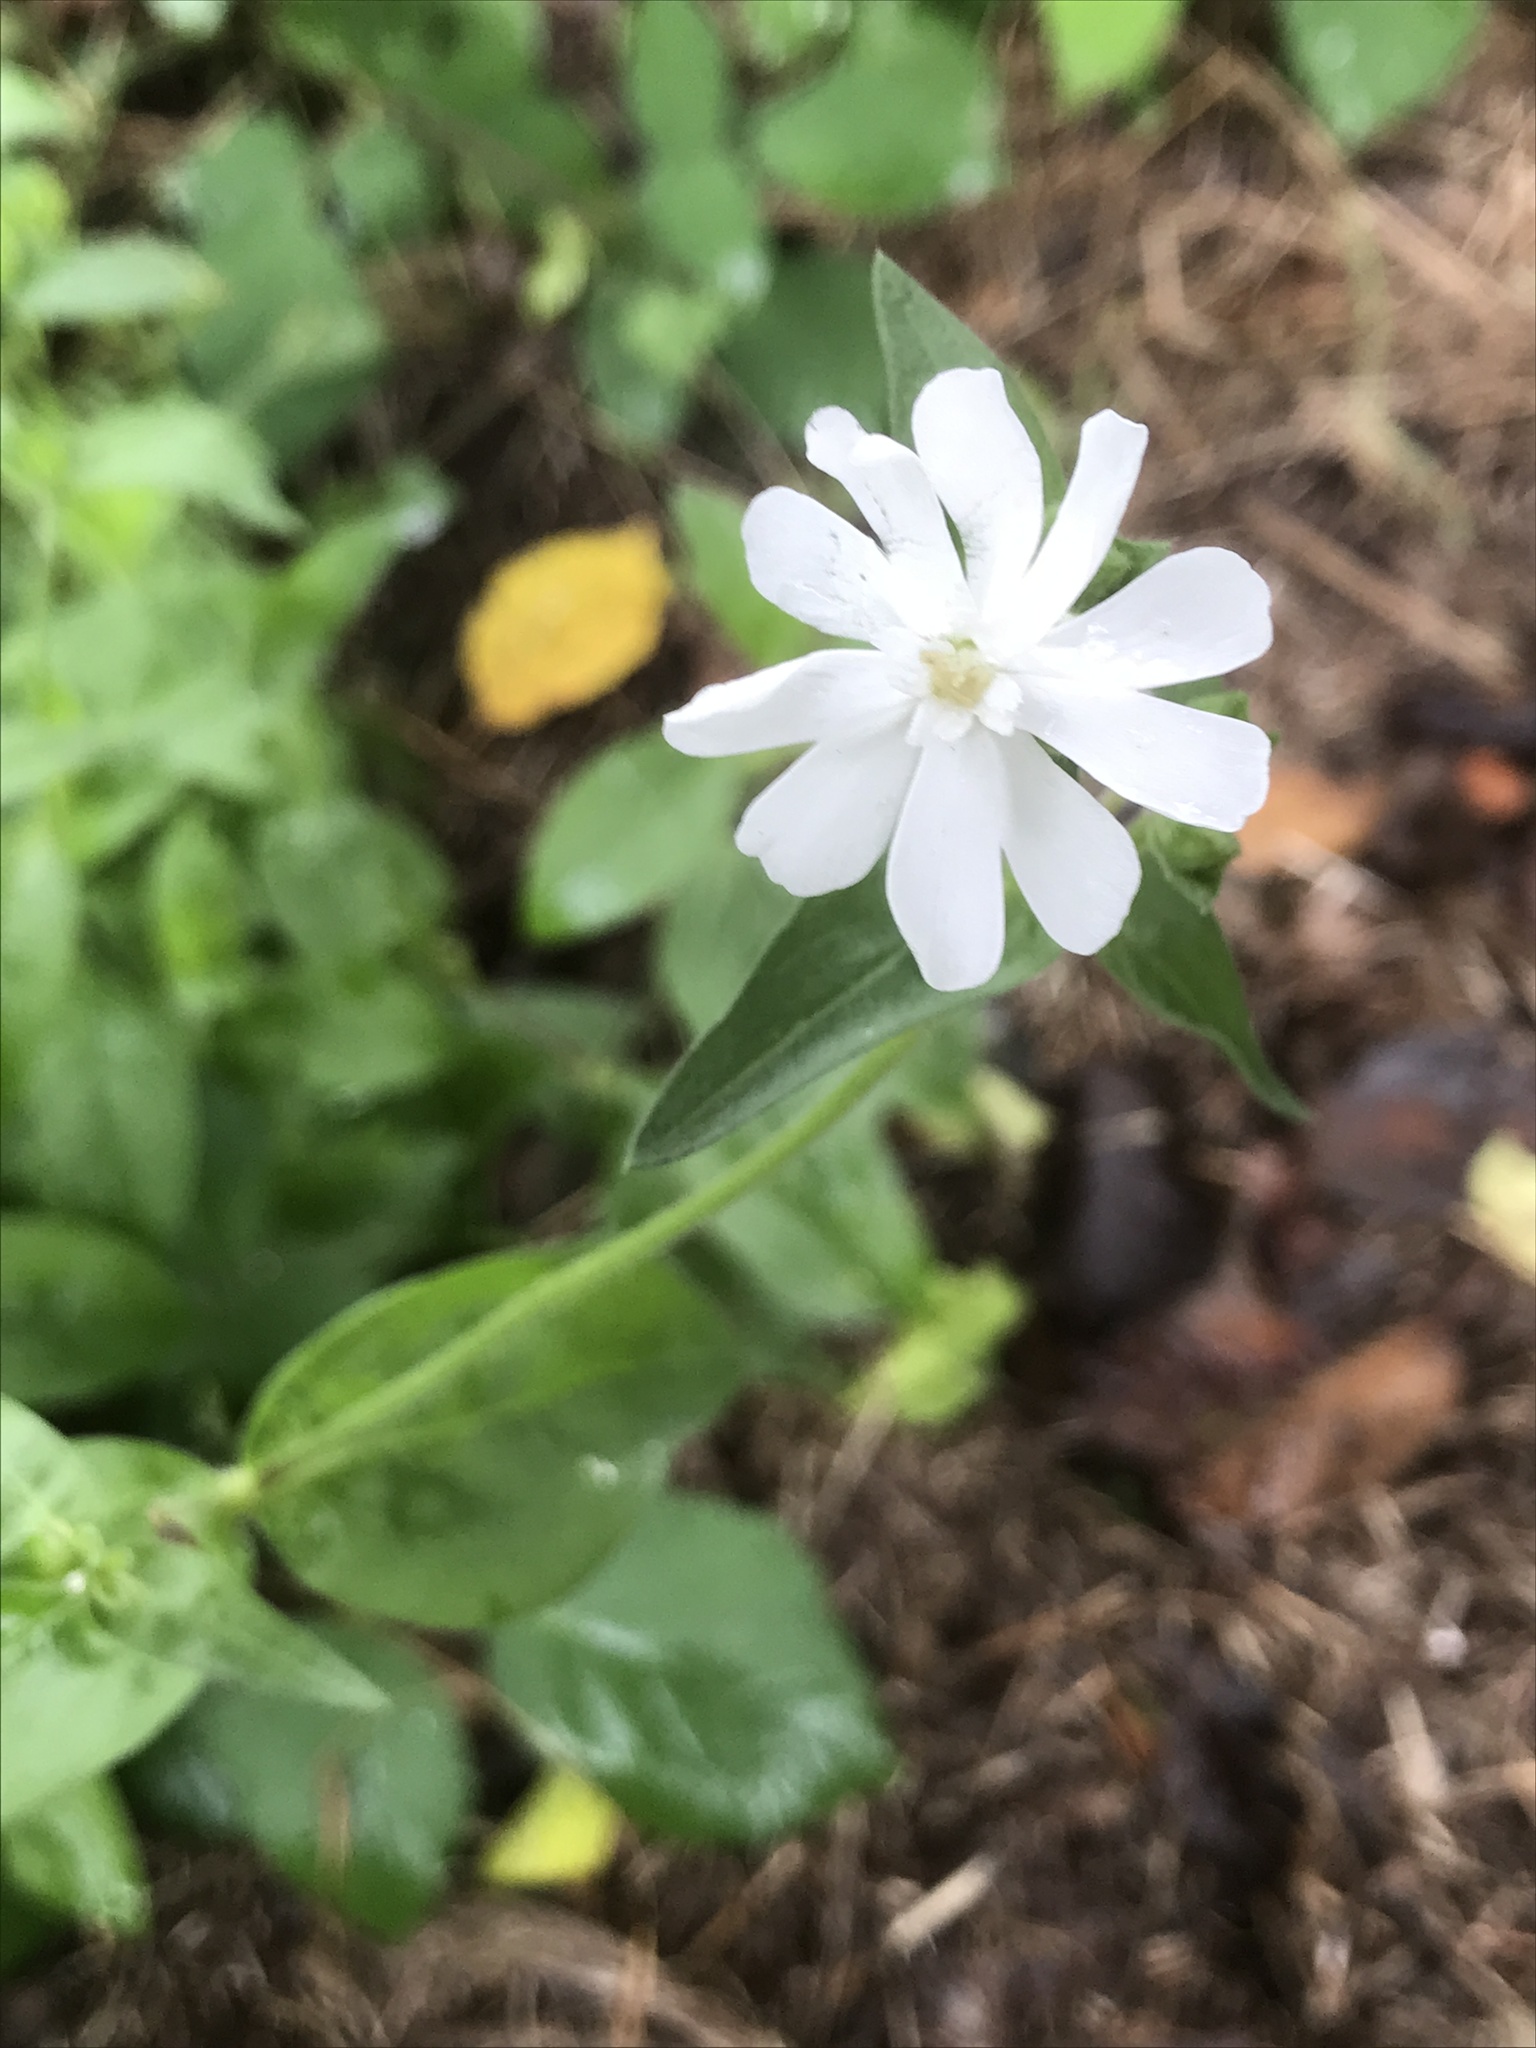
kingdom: Plantae
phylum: Tracheophyta
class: Magnoliopsida
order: Caryophyllales
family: Caryophyllaceae
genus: Silene
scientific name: Silene latifolia
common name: White campion
